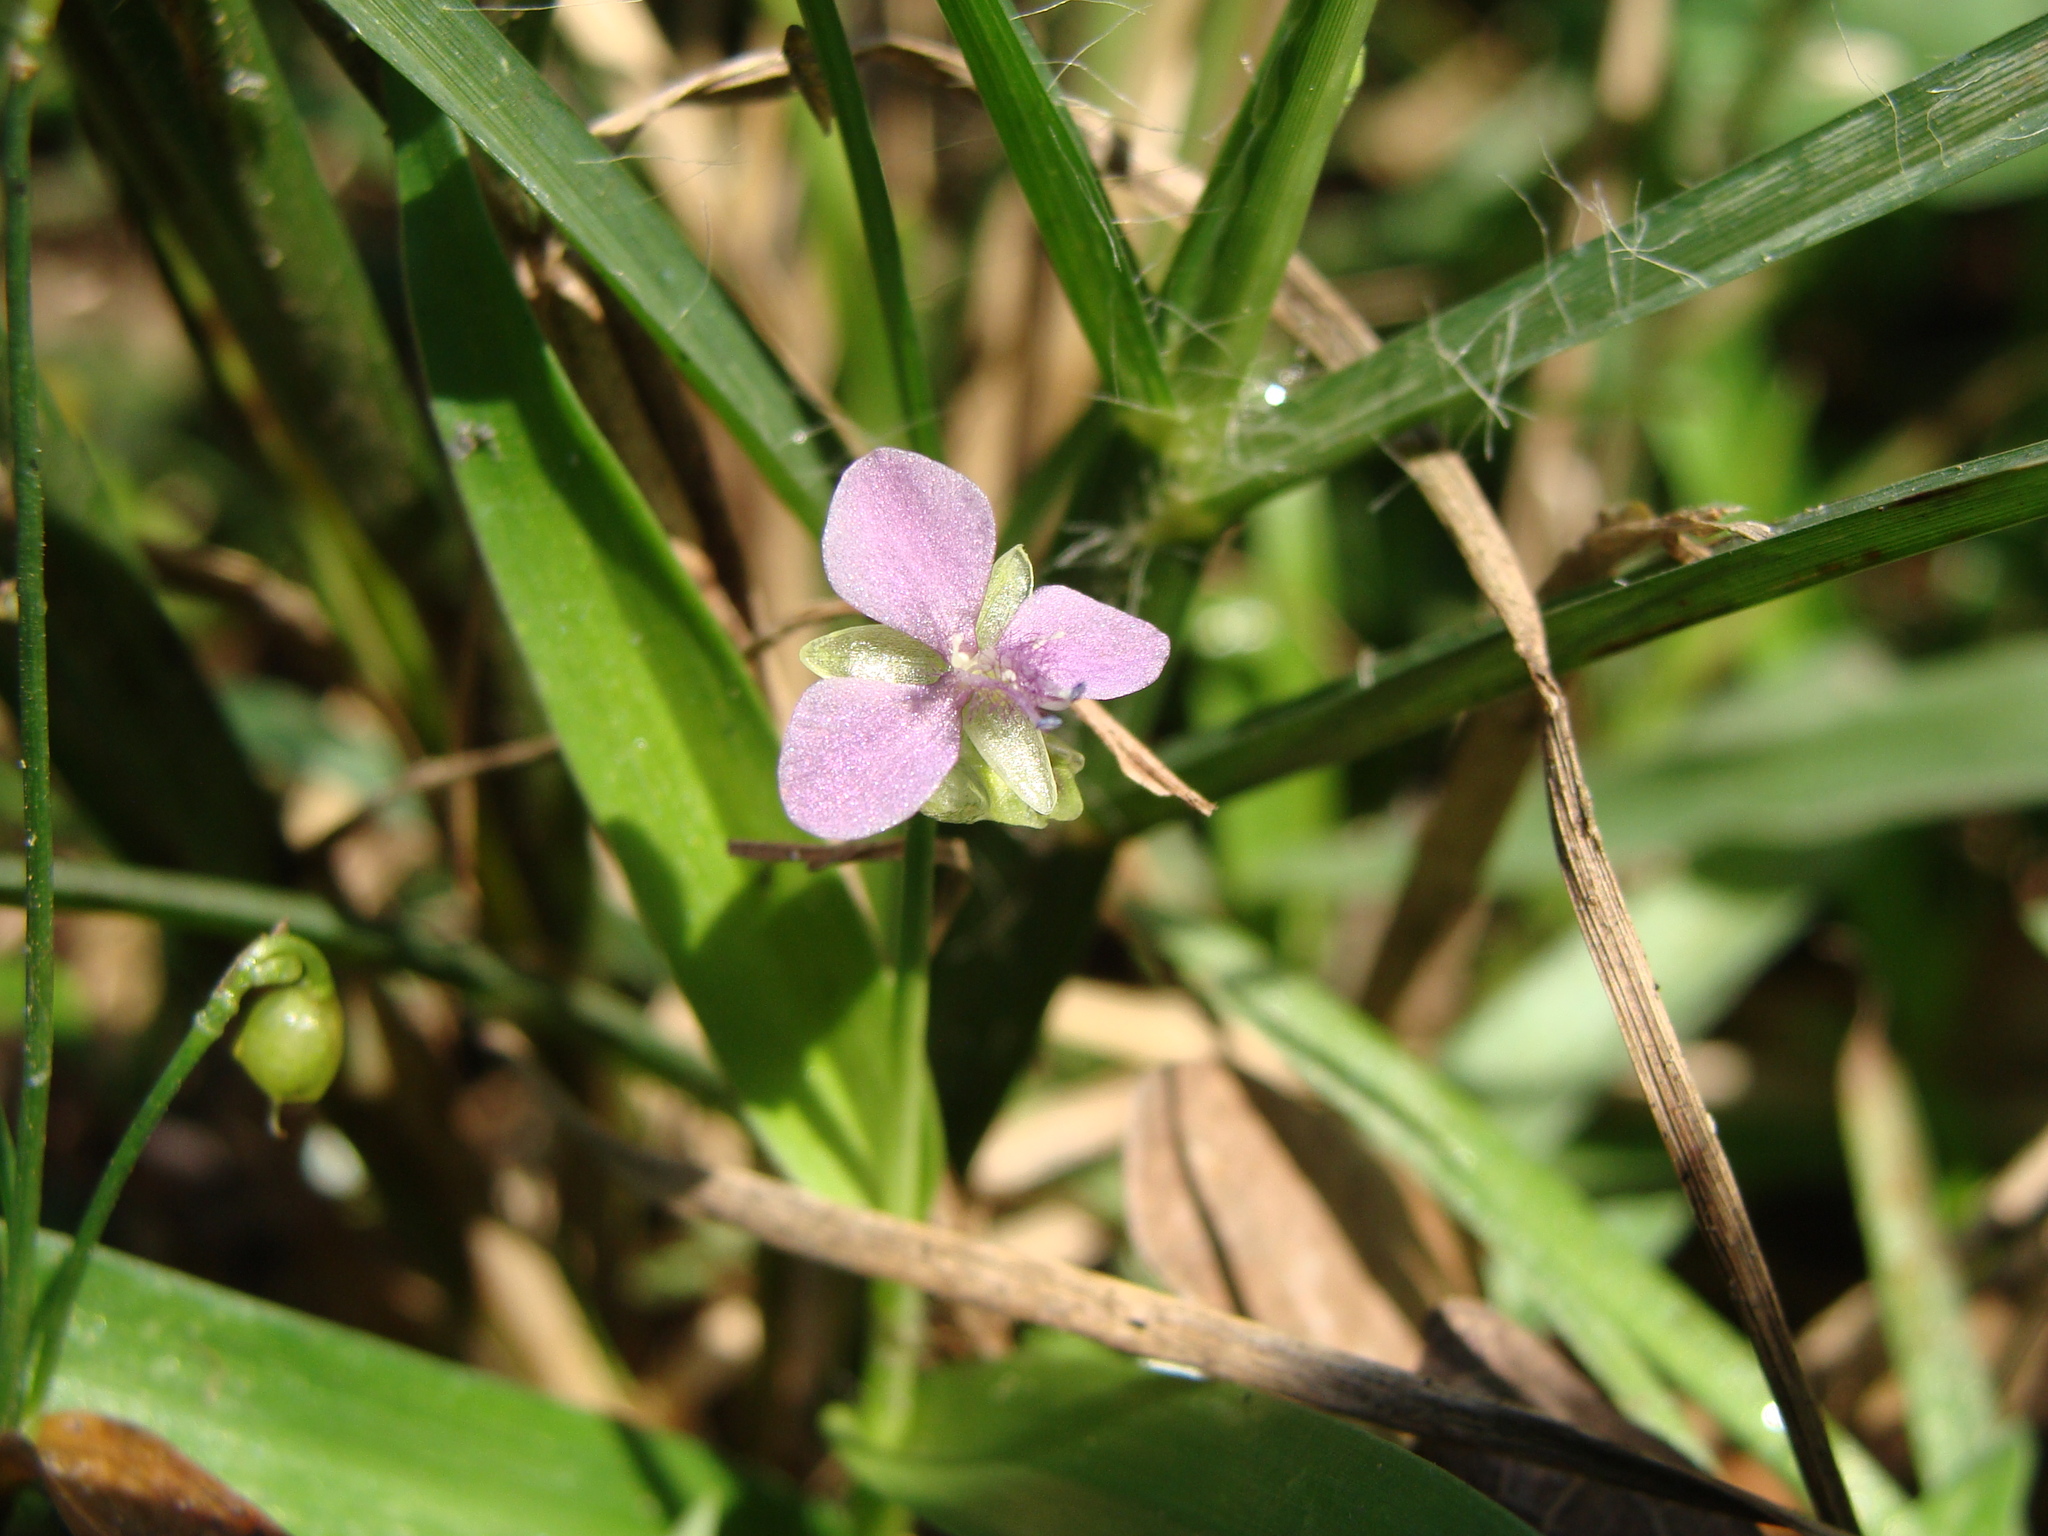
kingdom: Plantae
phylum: Tracheophyta
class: Liliopsida
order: Commelinales
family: Commelinaceae
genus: Murdannia
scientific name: Murdannia nudiflora
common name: Nakedstem dewflower
